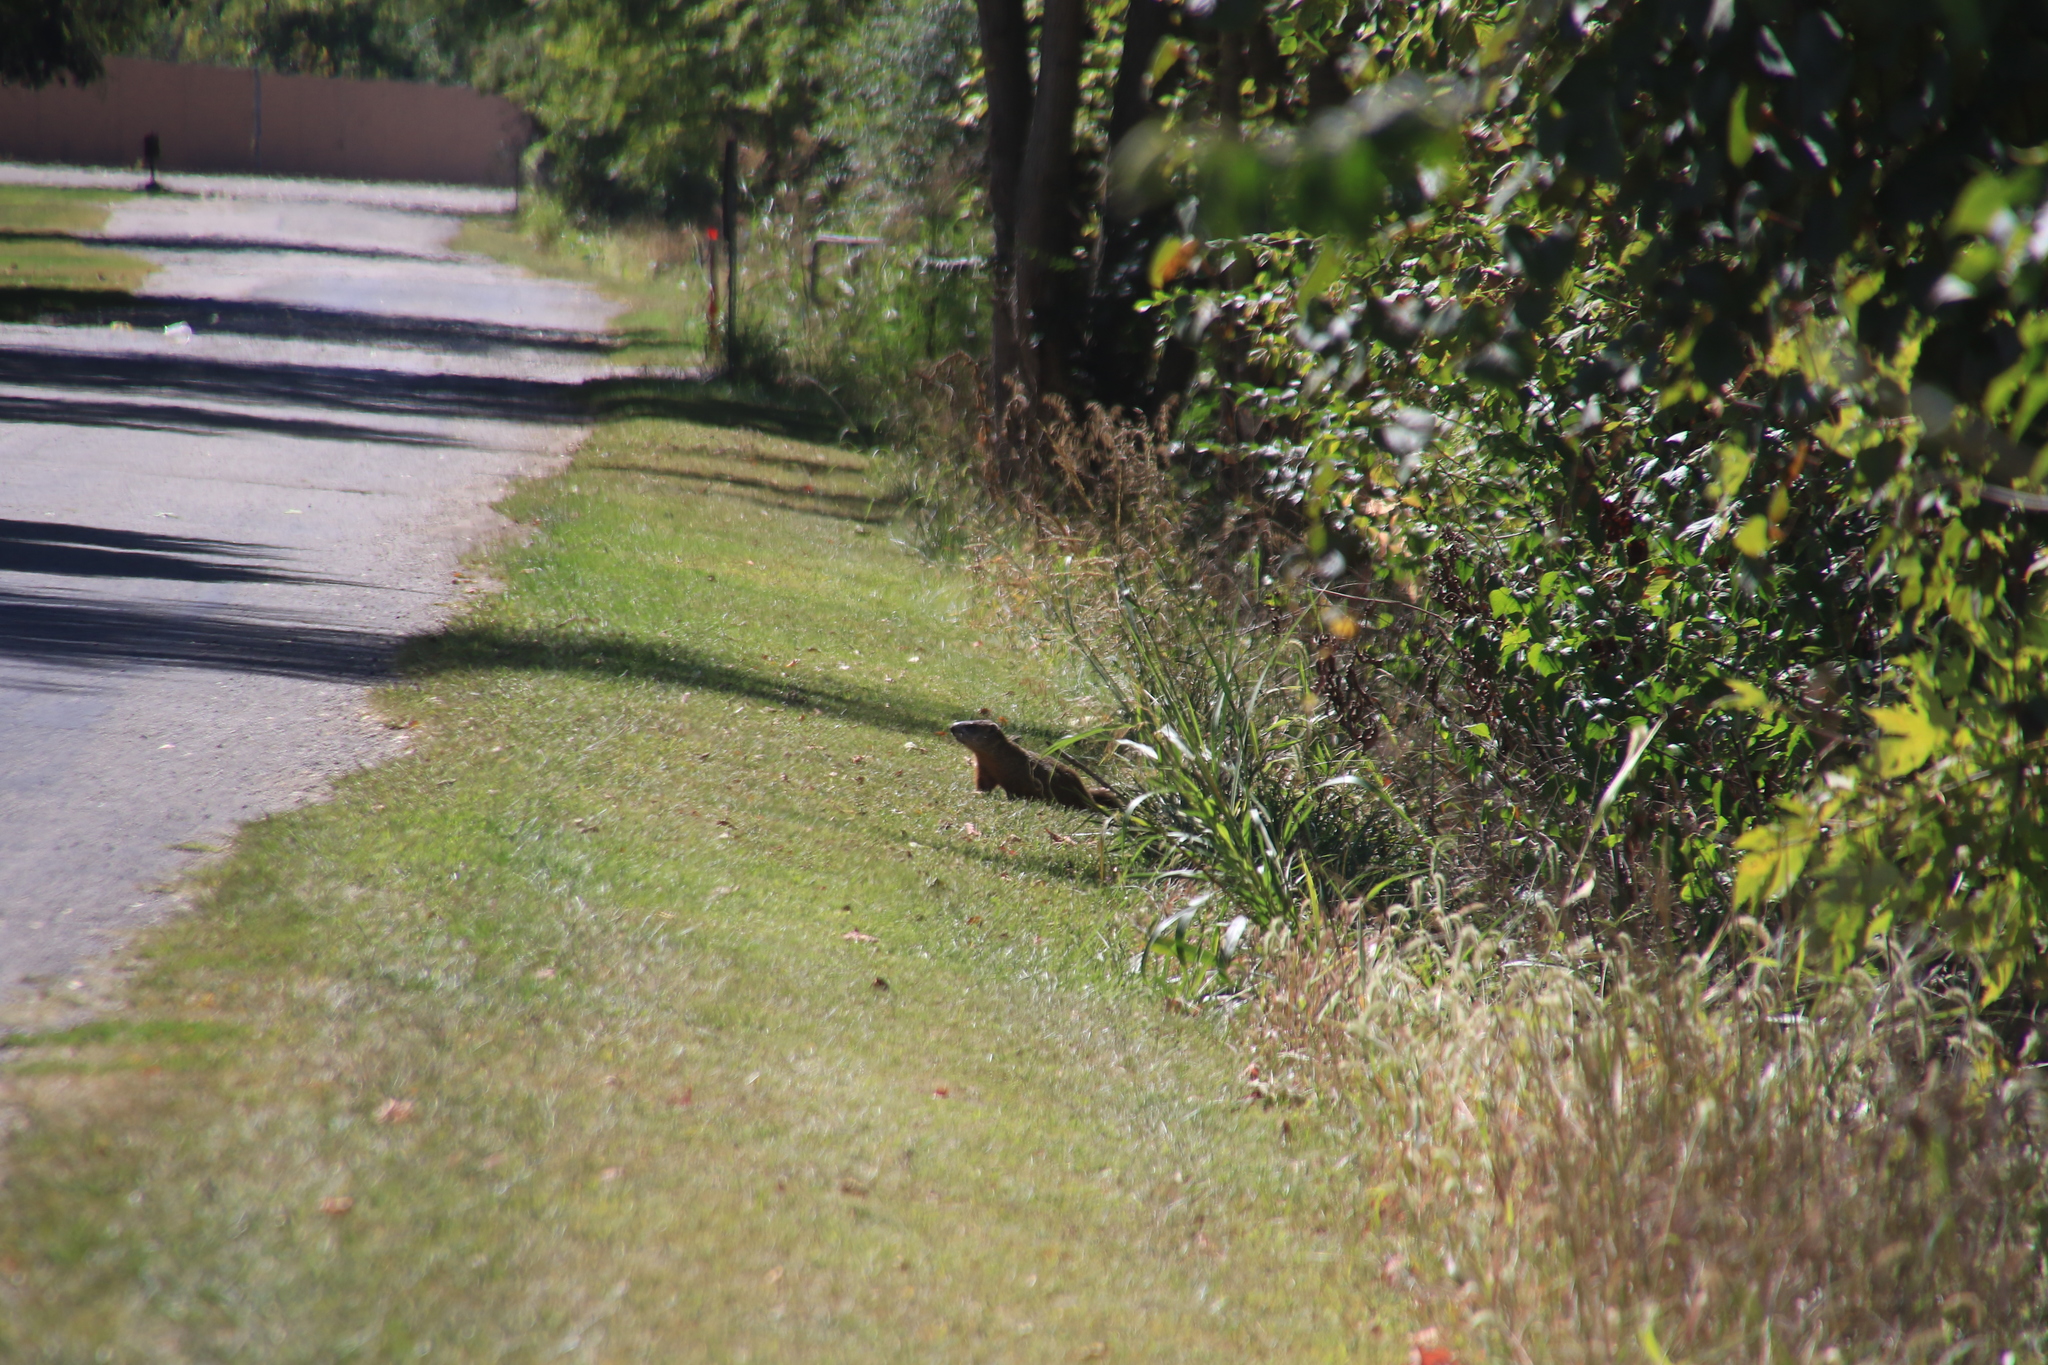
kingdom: Animalia
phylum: Chordata
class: Mammalia
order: Rodentia
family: Sciuridae
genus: Marmota
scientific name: Marmota monax
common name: Groundhog
